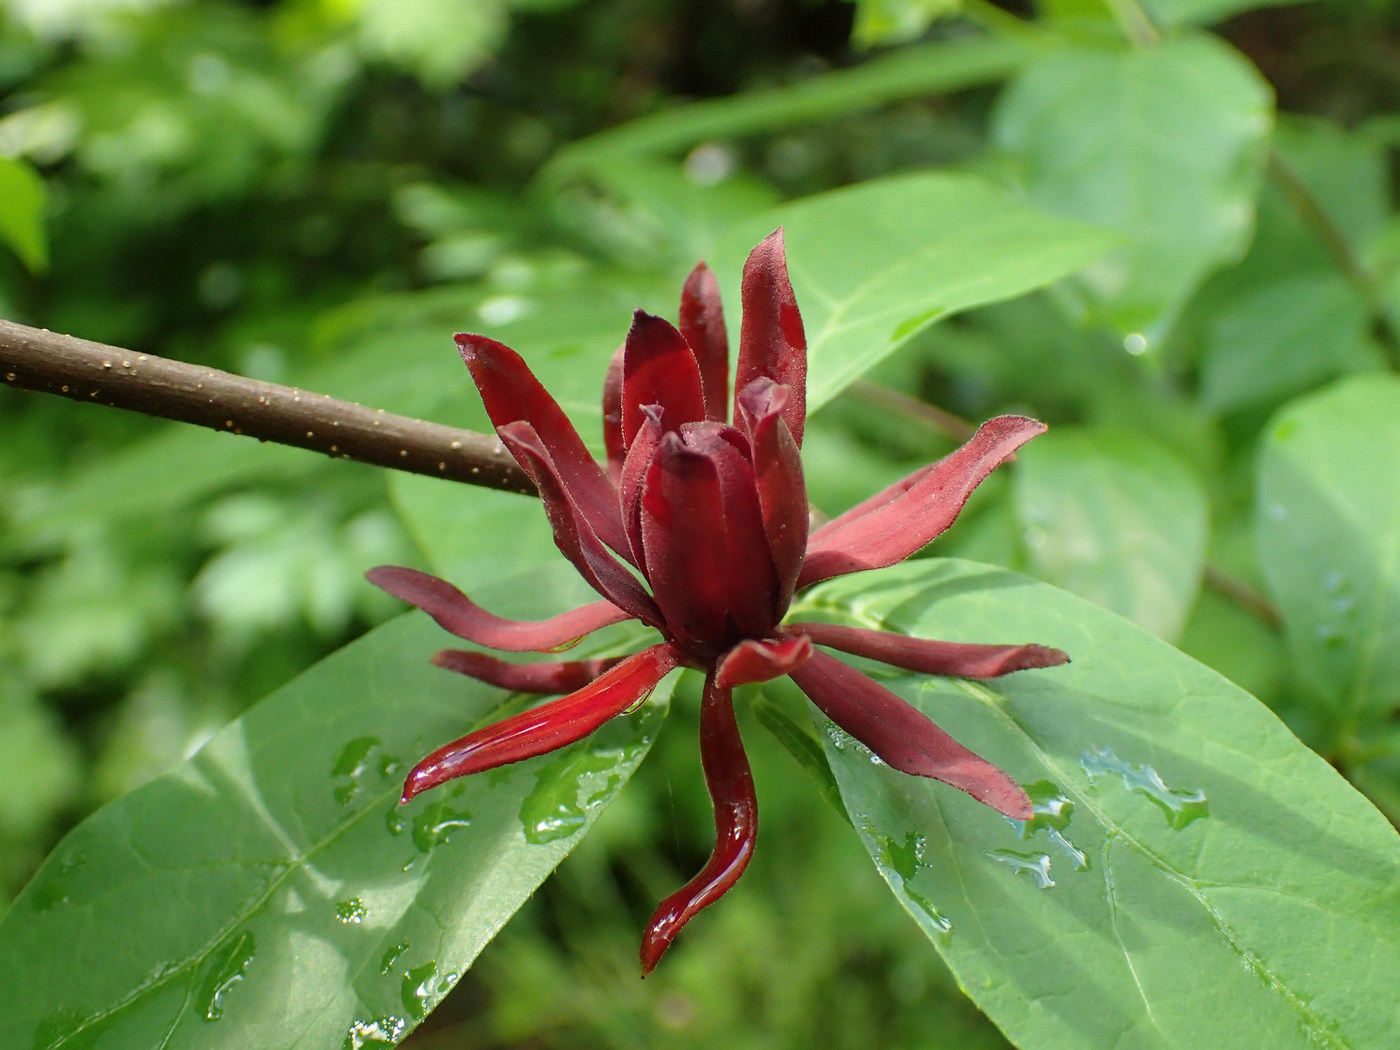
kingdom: Plantae
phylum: Tracheophyta
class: Magnoliopsida
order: Laurales
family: Calycanthaceae
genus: Calycanthus
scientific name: Calycanthus floridus
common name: Carolina-allspice
